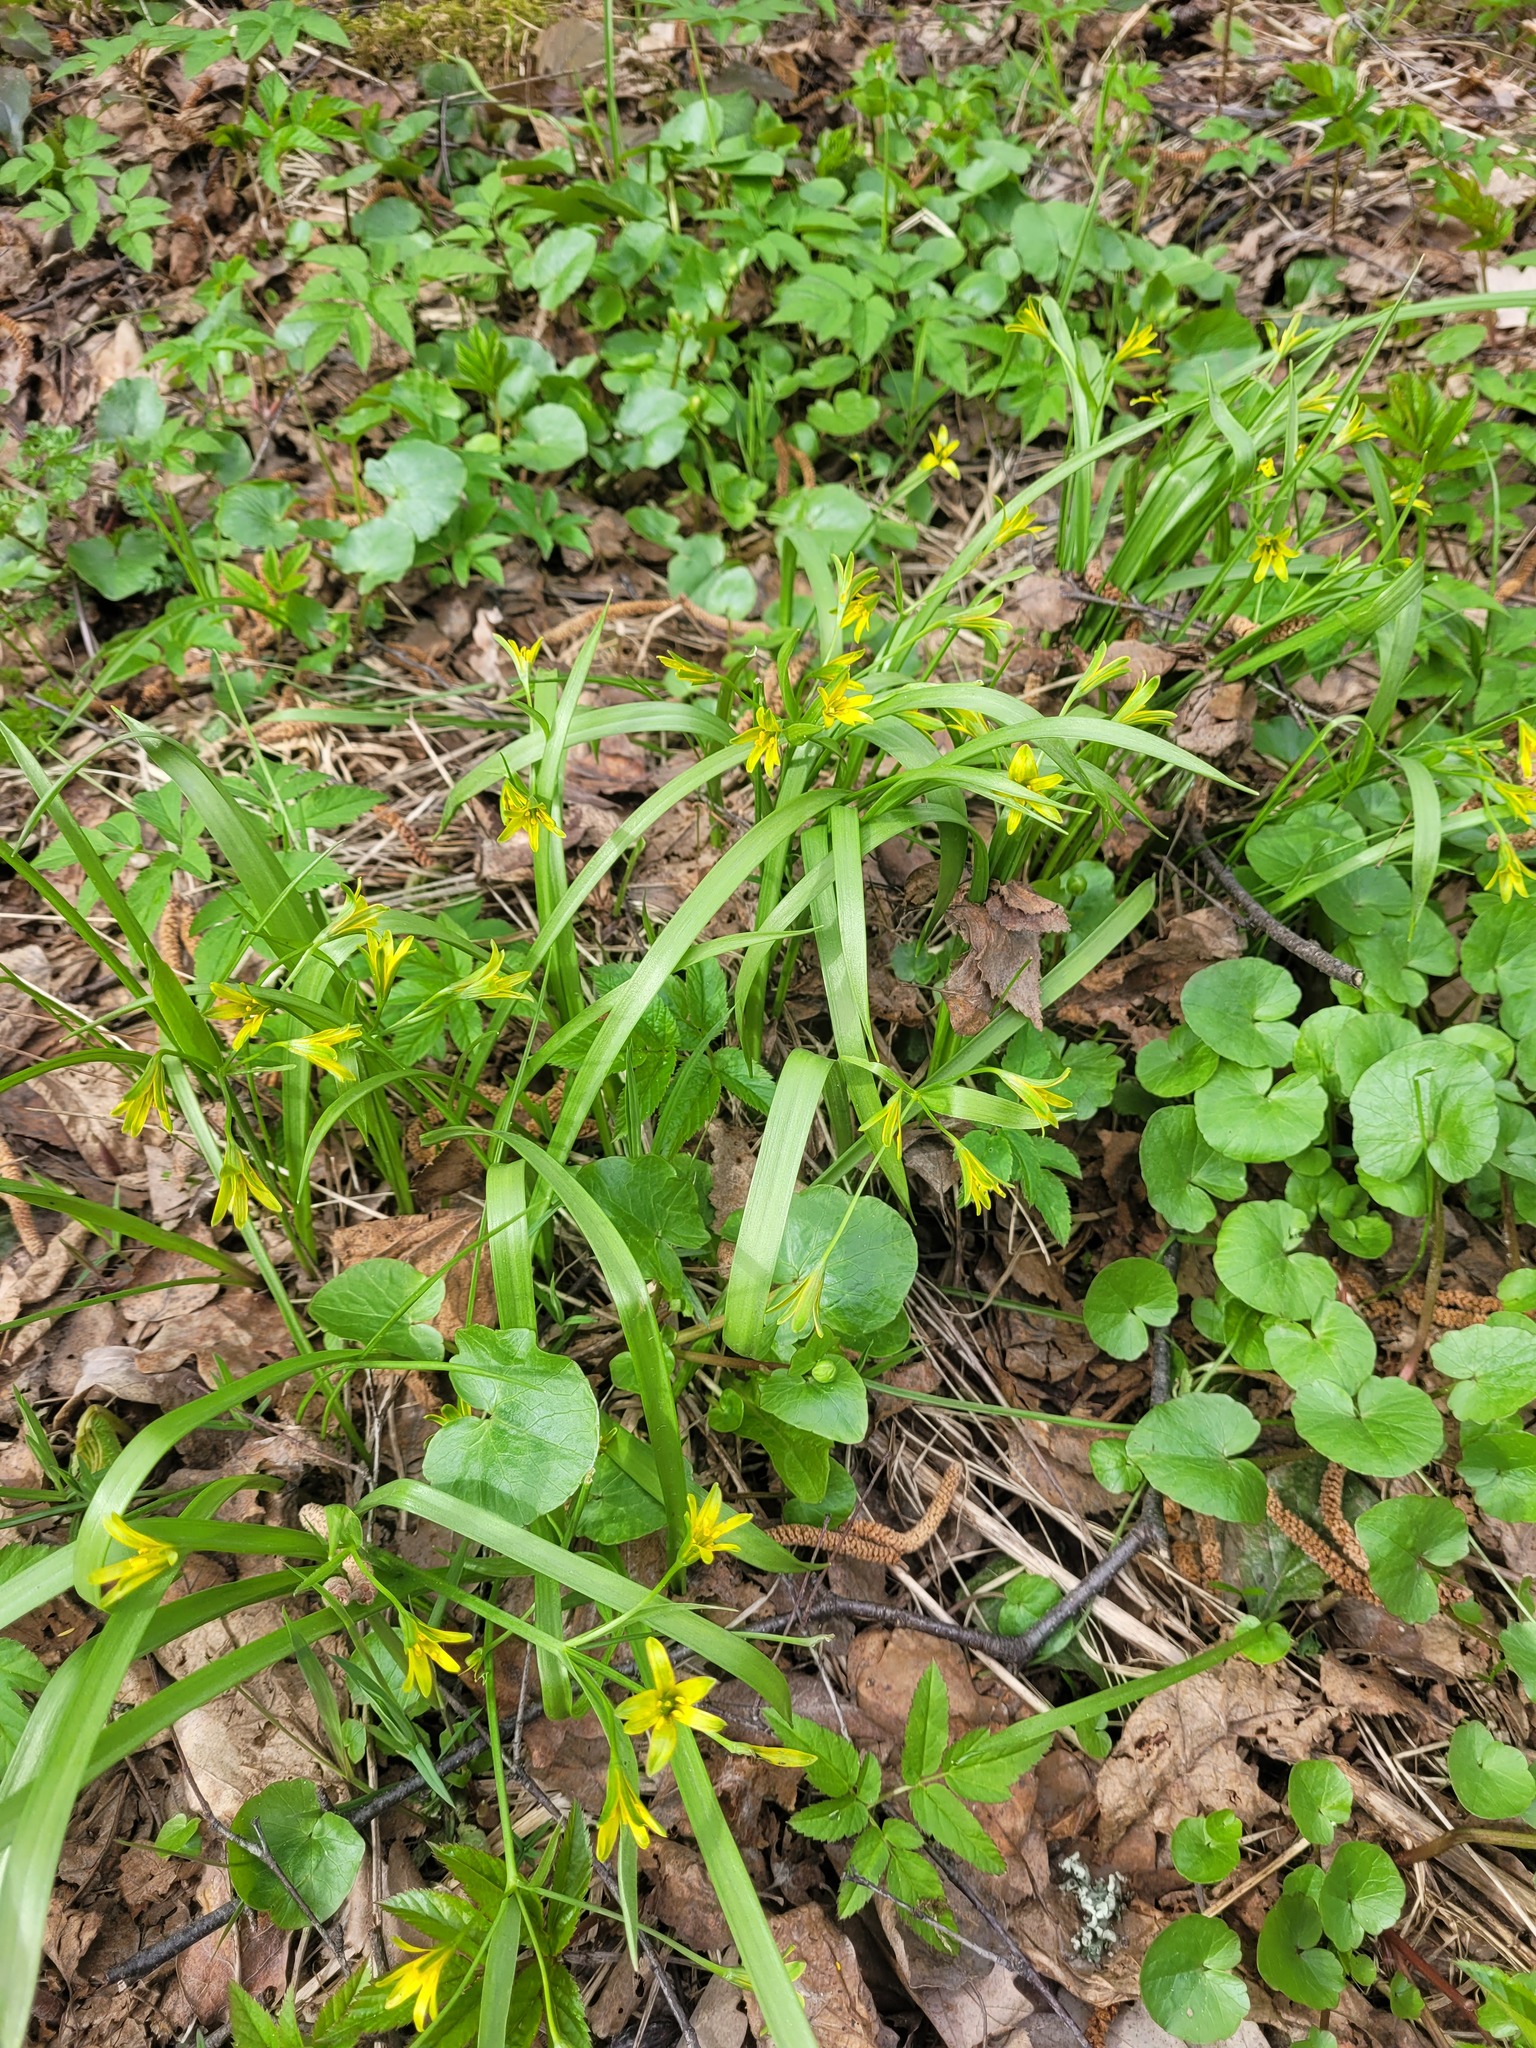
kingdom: Plantae
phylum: Tracheophyta
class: Liliopsida
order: Liliales
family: Liliaceae
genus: Gagea
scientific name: Gagea lutea
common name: Yellow star-of-bethlehem
